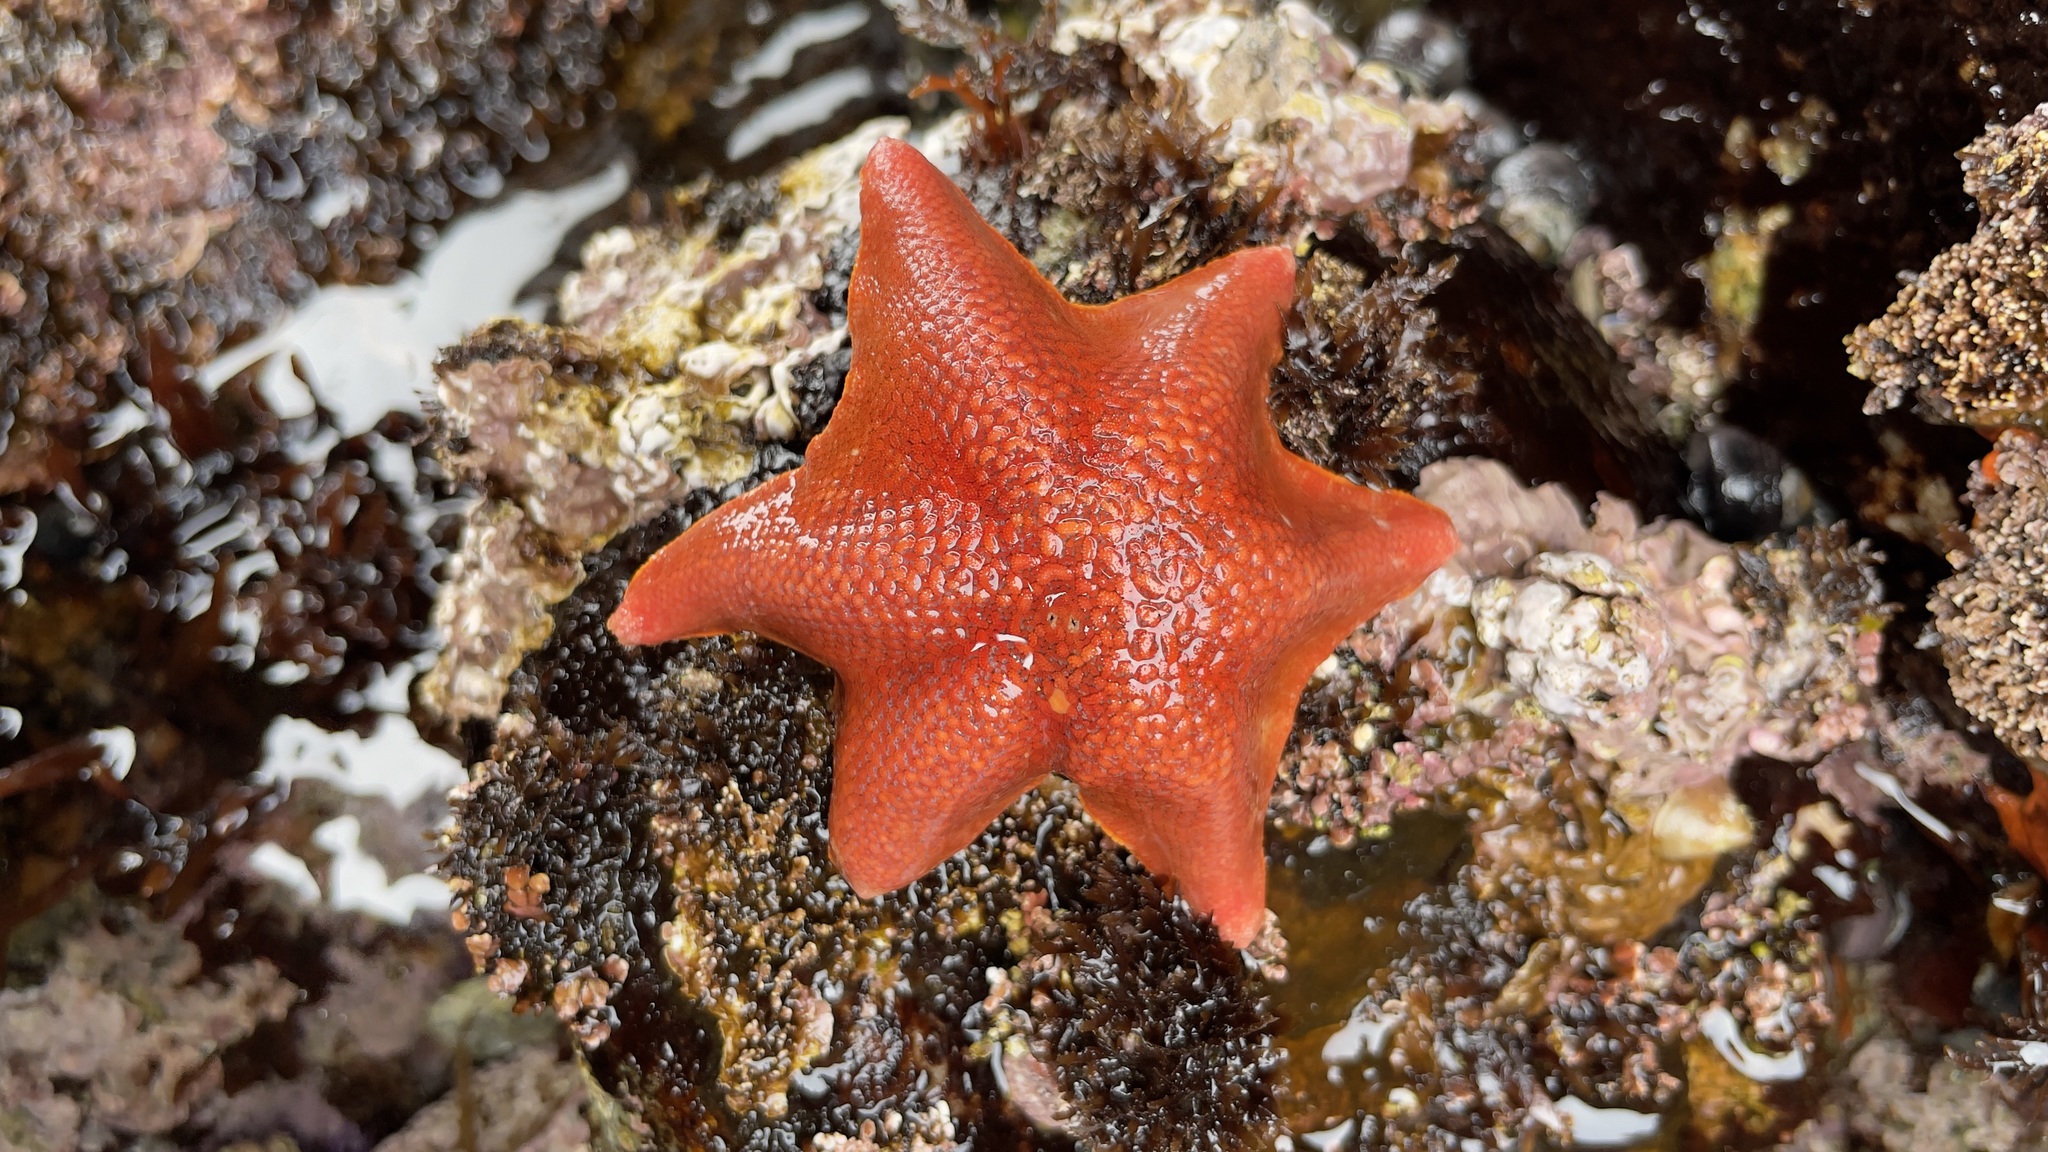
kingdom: Animalia
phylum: Echinodermata
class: Asteroidea
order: Valvatida
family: Asterinidae
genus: Patiria
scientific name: Patiria miniata
